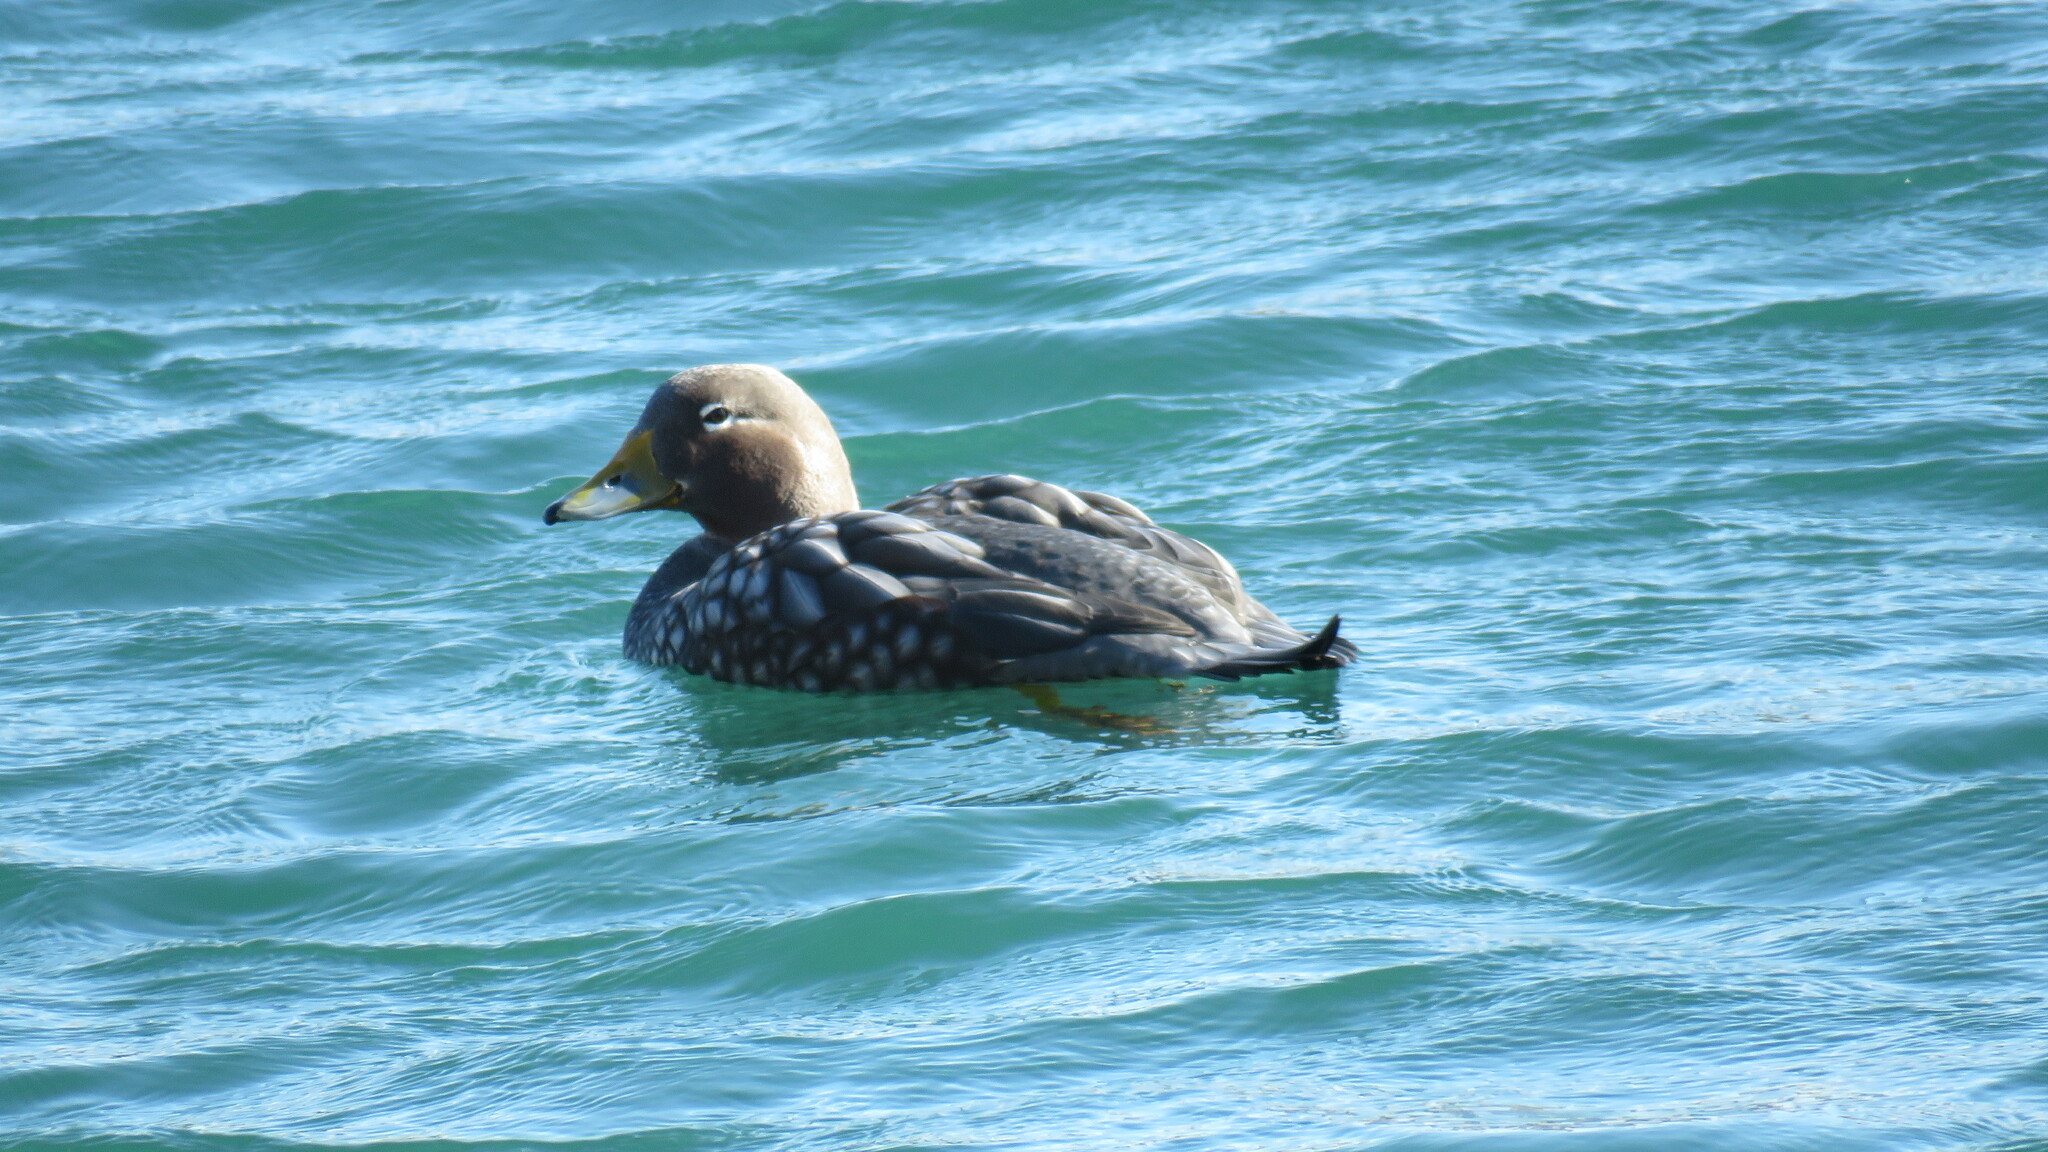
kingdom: Animalia
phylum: Chordata
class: Aves
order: Anseriformes
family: Anatidae
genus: Tachyeres
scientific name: Tachyeres patachonicus
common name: Flying steamer duck
